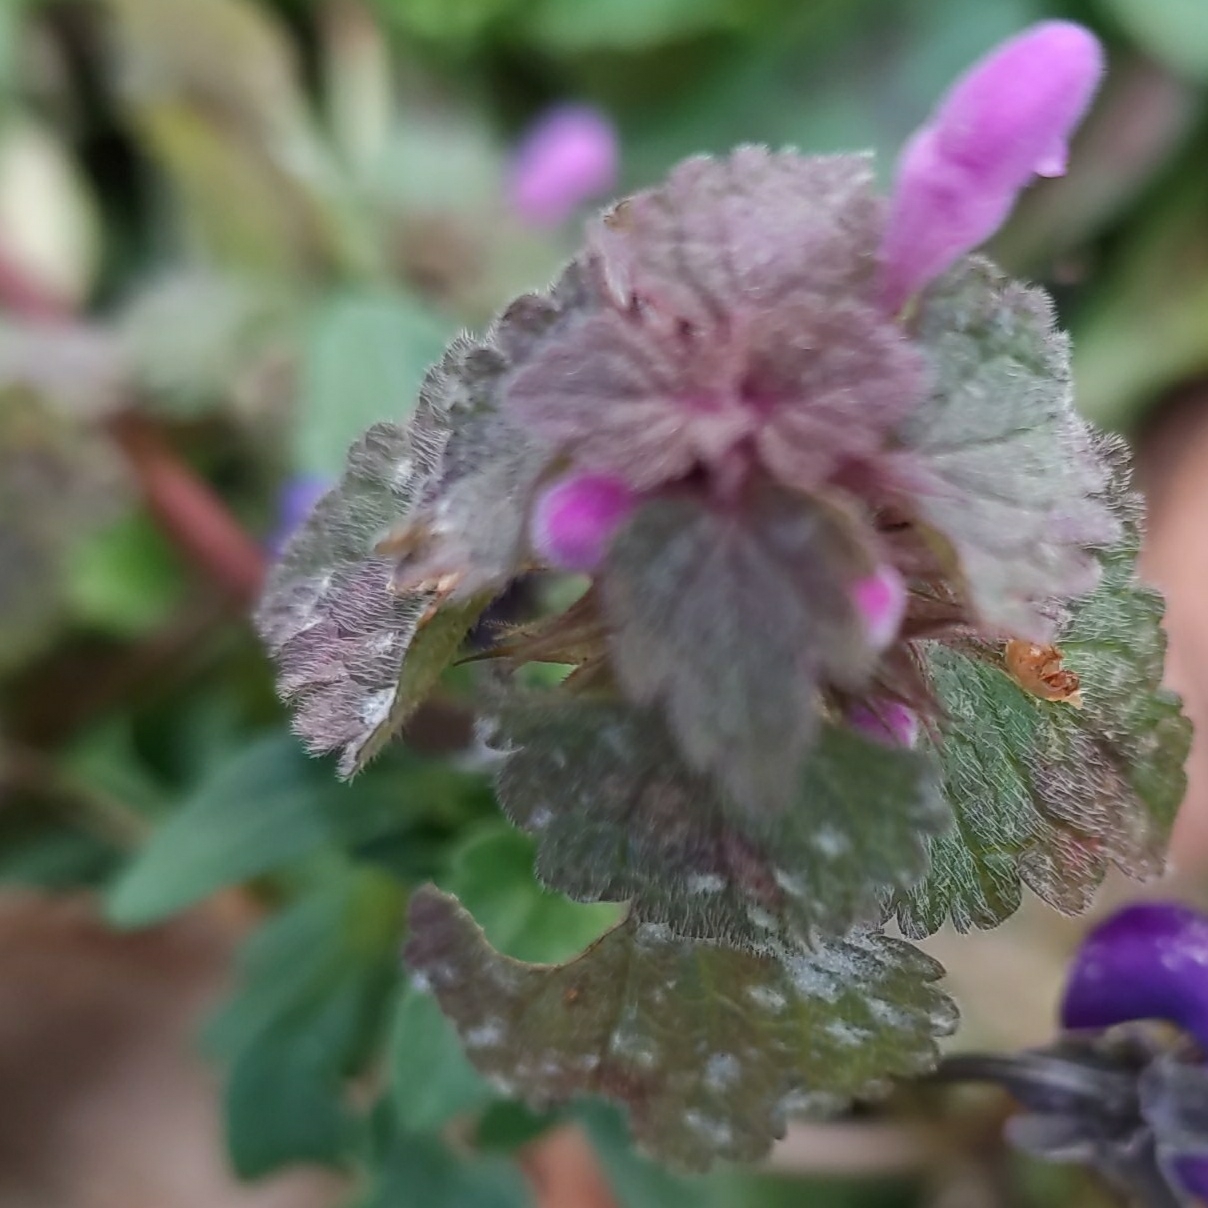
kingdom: Plantae
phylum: Tracheophyta
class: Magnoliopsida
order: Lamiales
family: Lamiaceae
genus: Lamium
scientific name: Lamium purpureum
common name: Red dead-nettle
